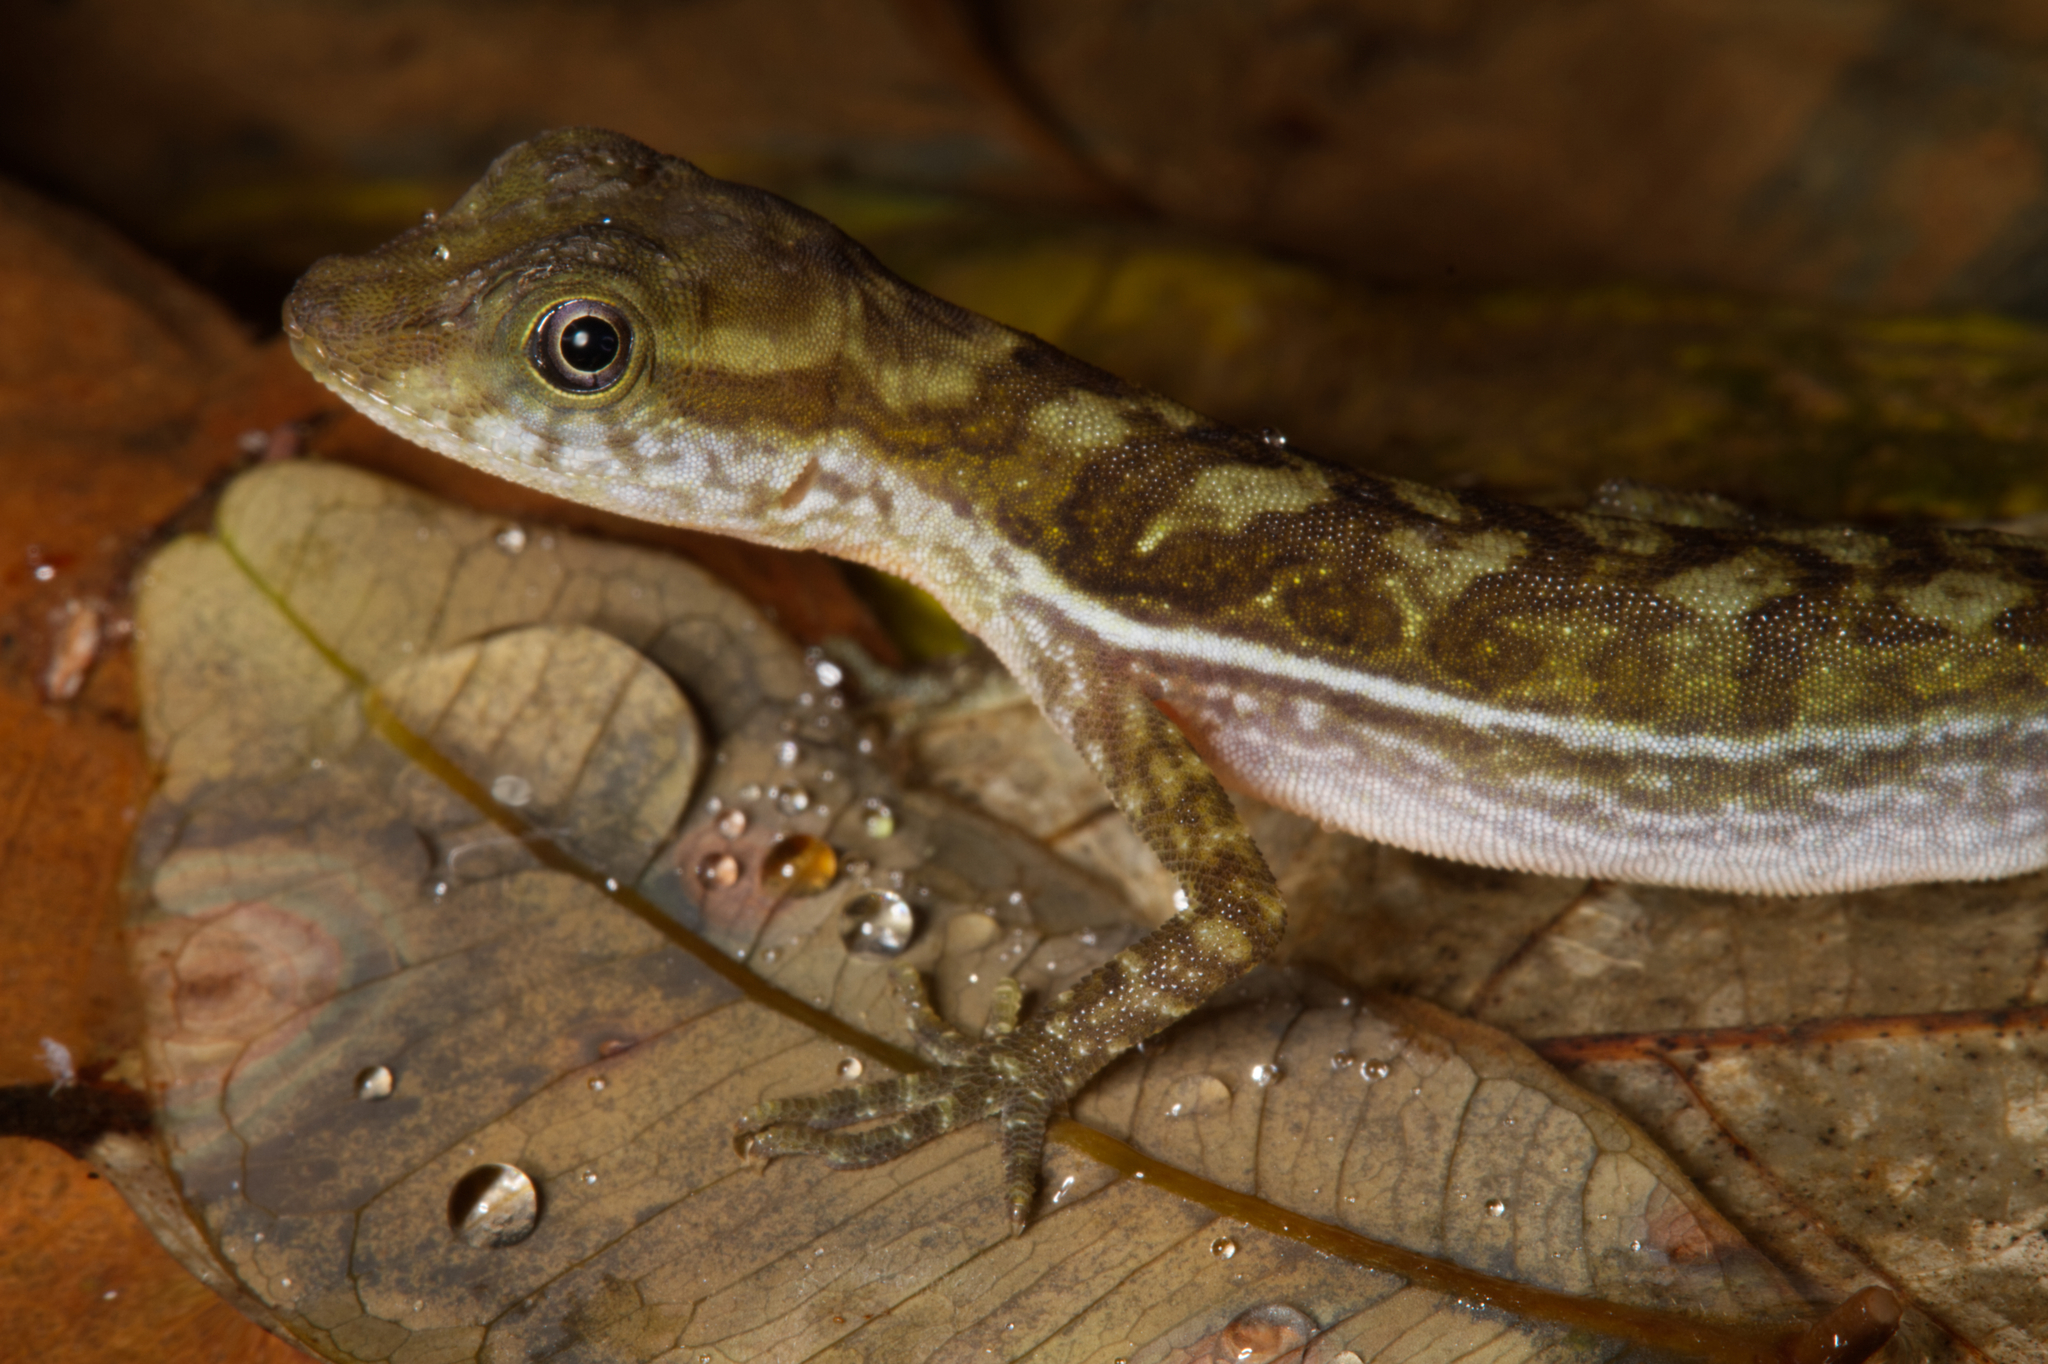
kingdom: Animalia
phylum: Chordata
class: Squamata
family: Dactyloidae
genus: Anolis
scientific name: Anolis poecilopus
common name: Dappled anole
